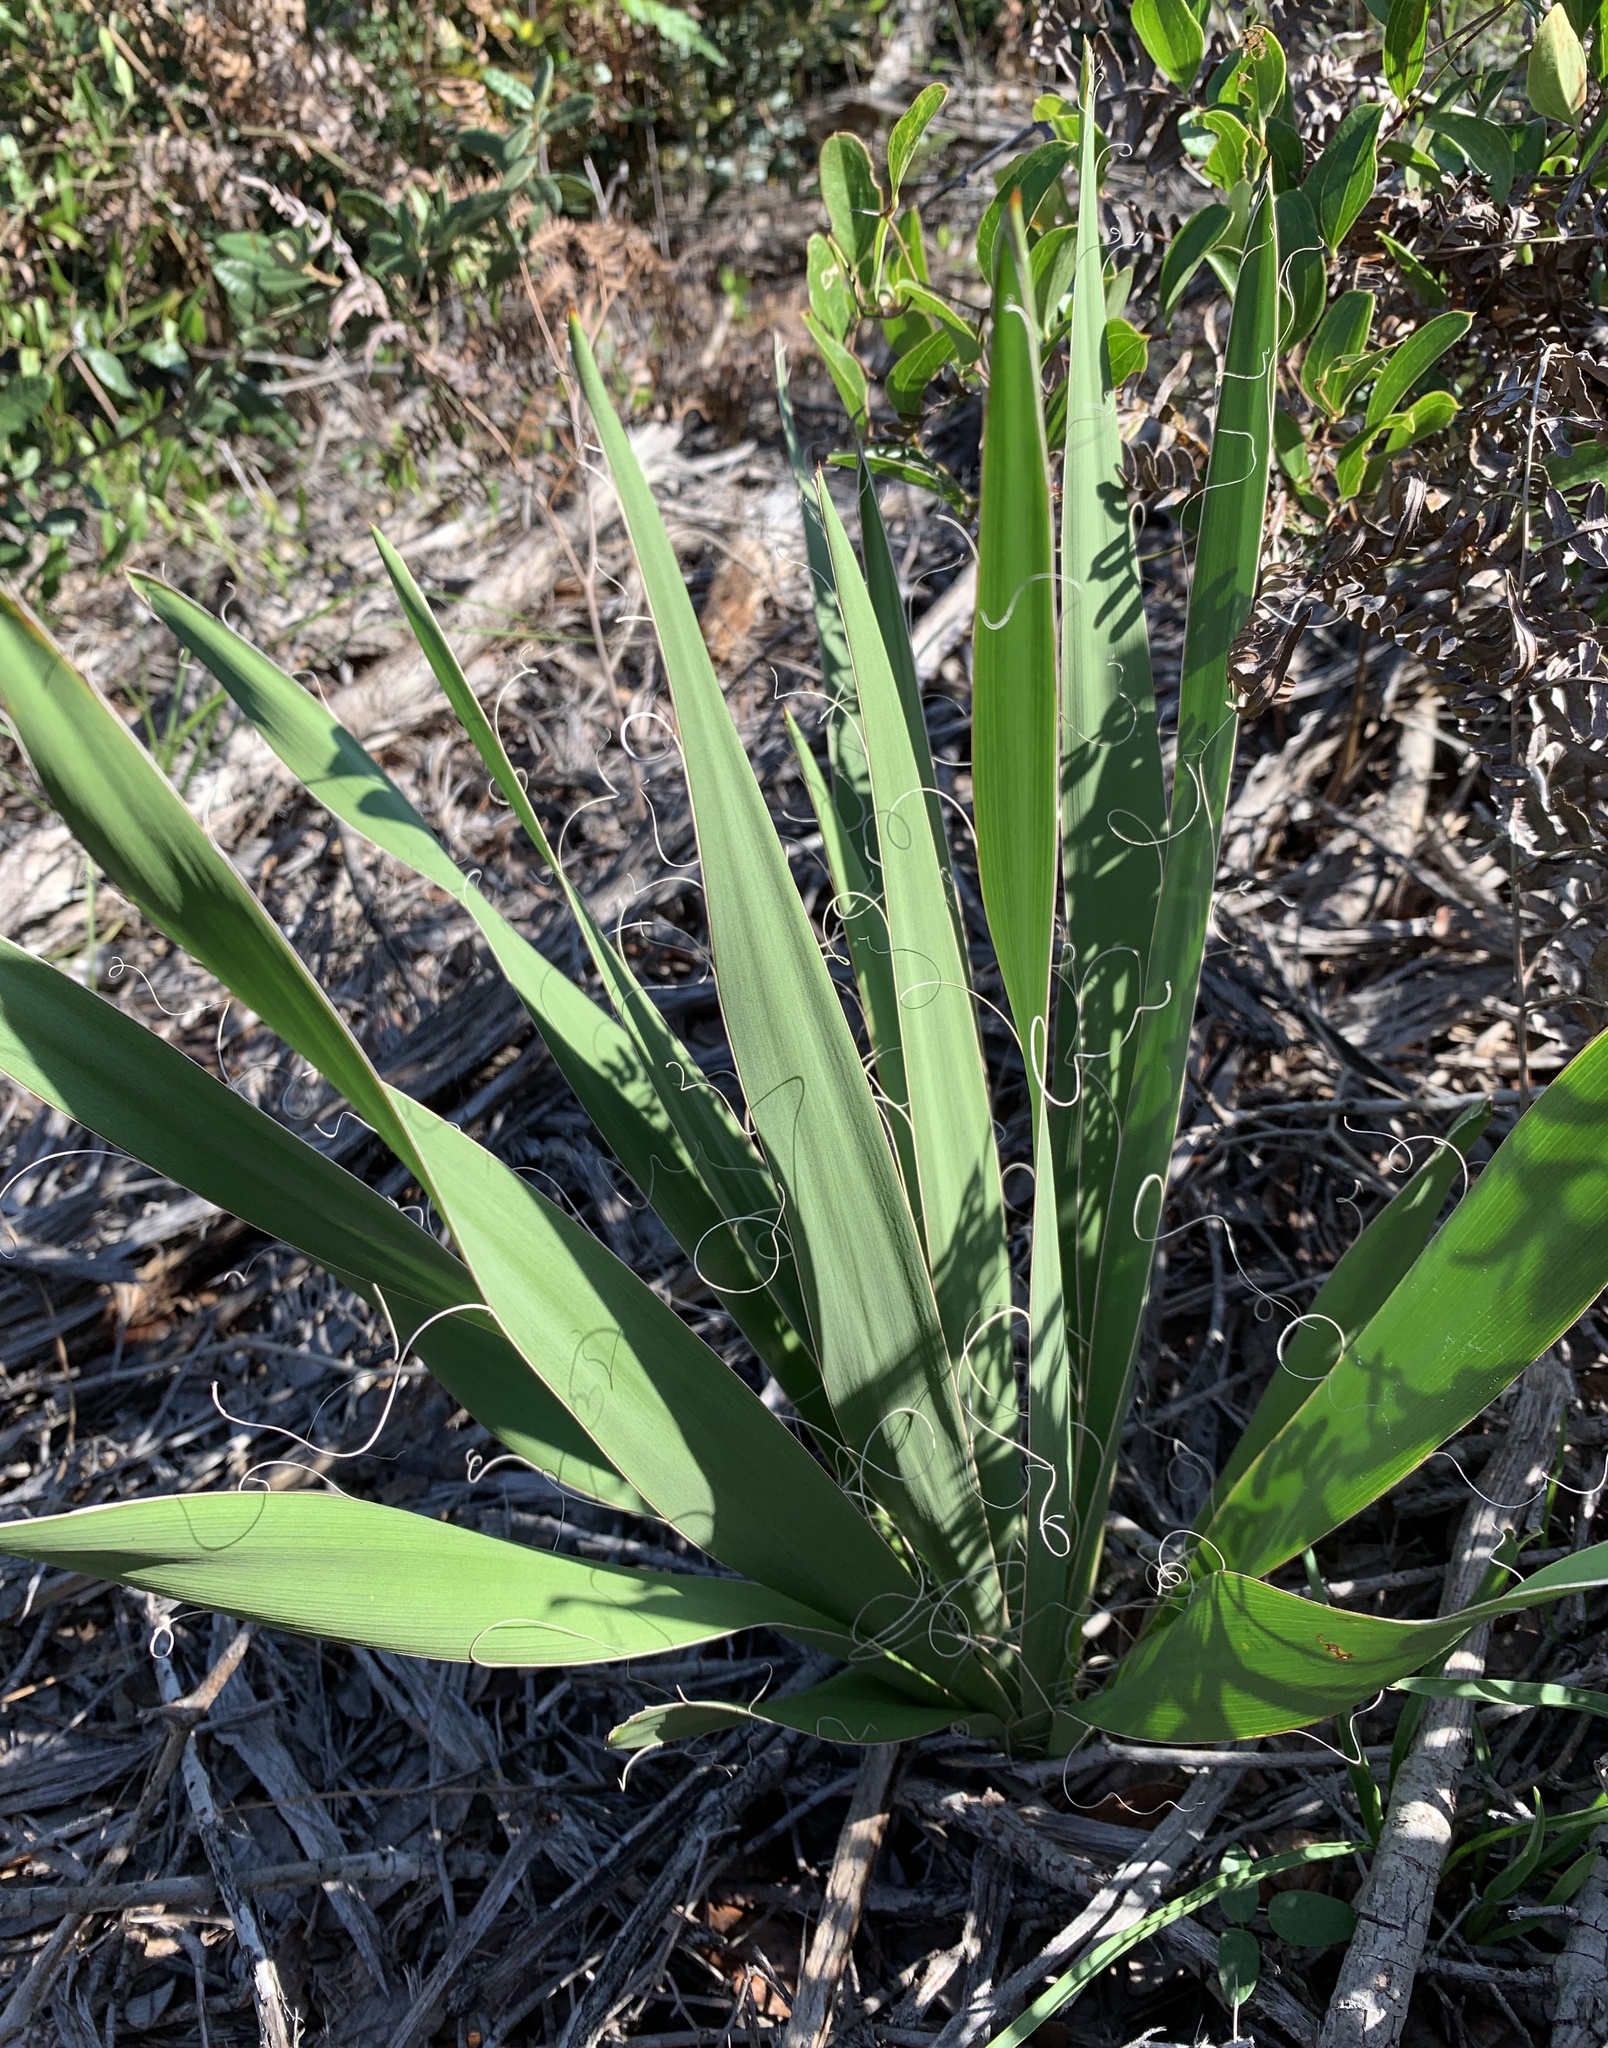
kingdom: Plantae
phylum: Tracheophyta
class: Liliopsida
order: Asparagales
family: Asparagaceae
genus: Yucca
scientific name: Yucca filamentosa
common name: Adam's-needle
